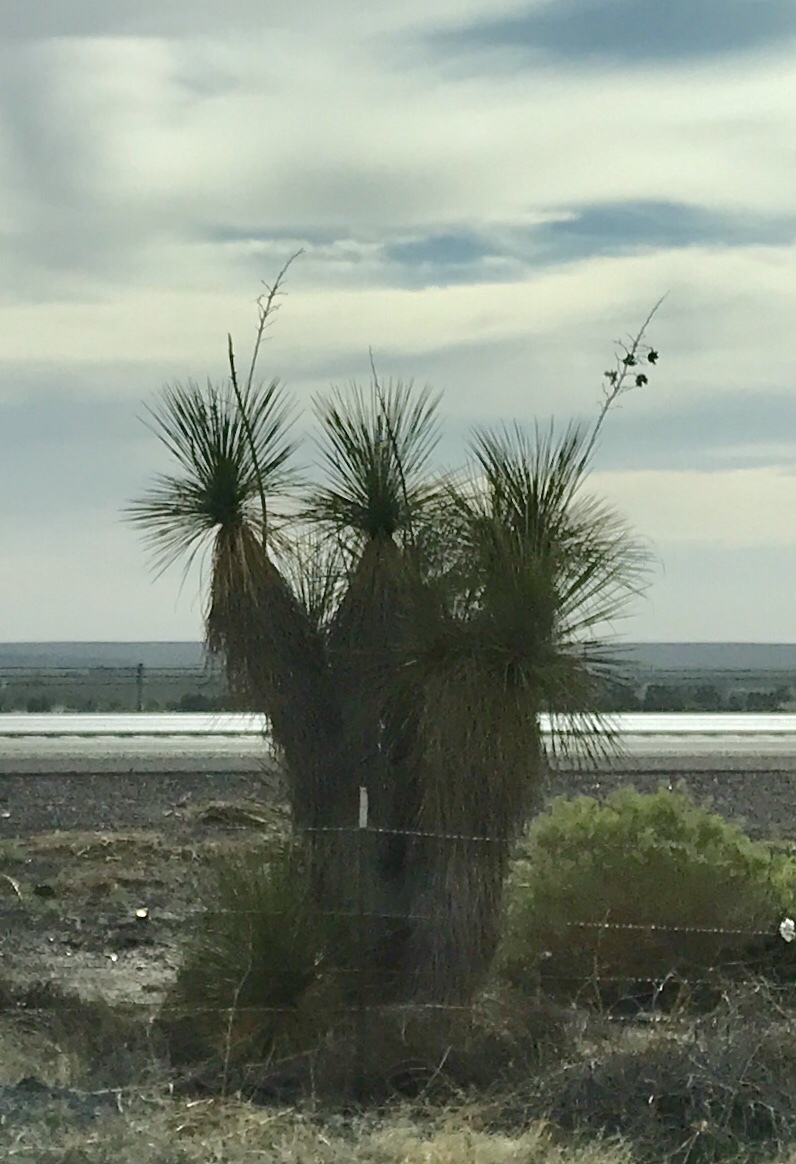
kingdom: Plantae
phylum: Tracheophyta
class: Liliopsida
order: Asparagales
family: Asparagaceae
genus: Yucca
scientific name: Yucca elata
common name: Palmella
